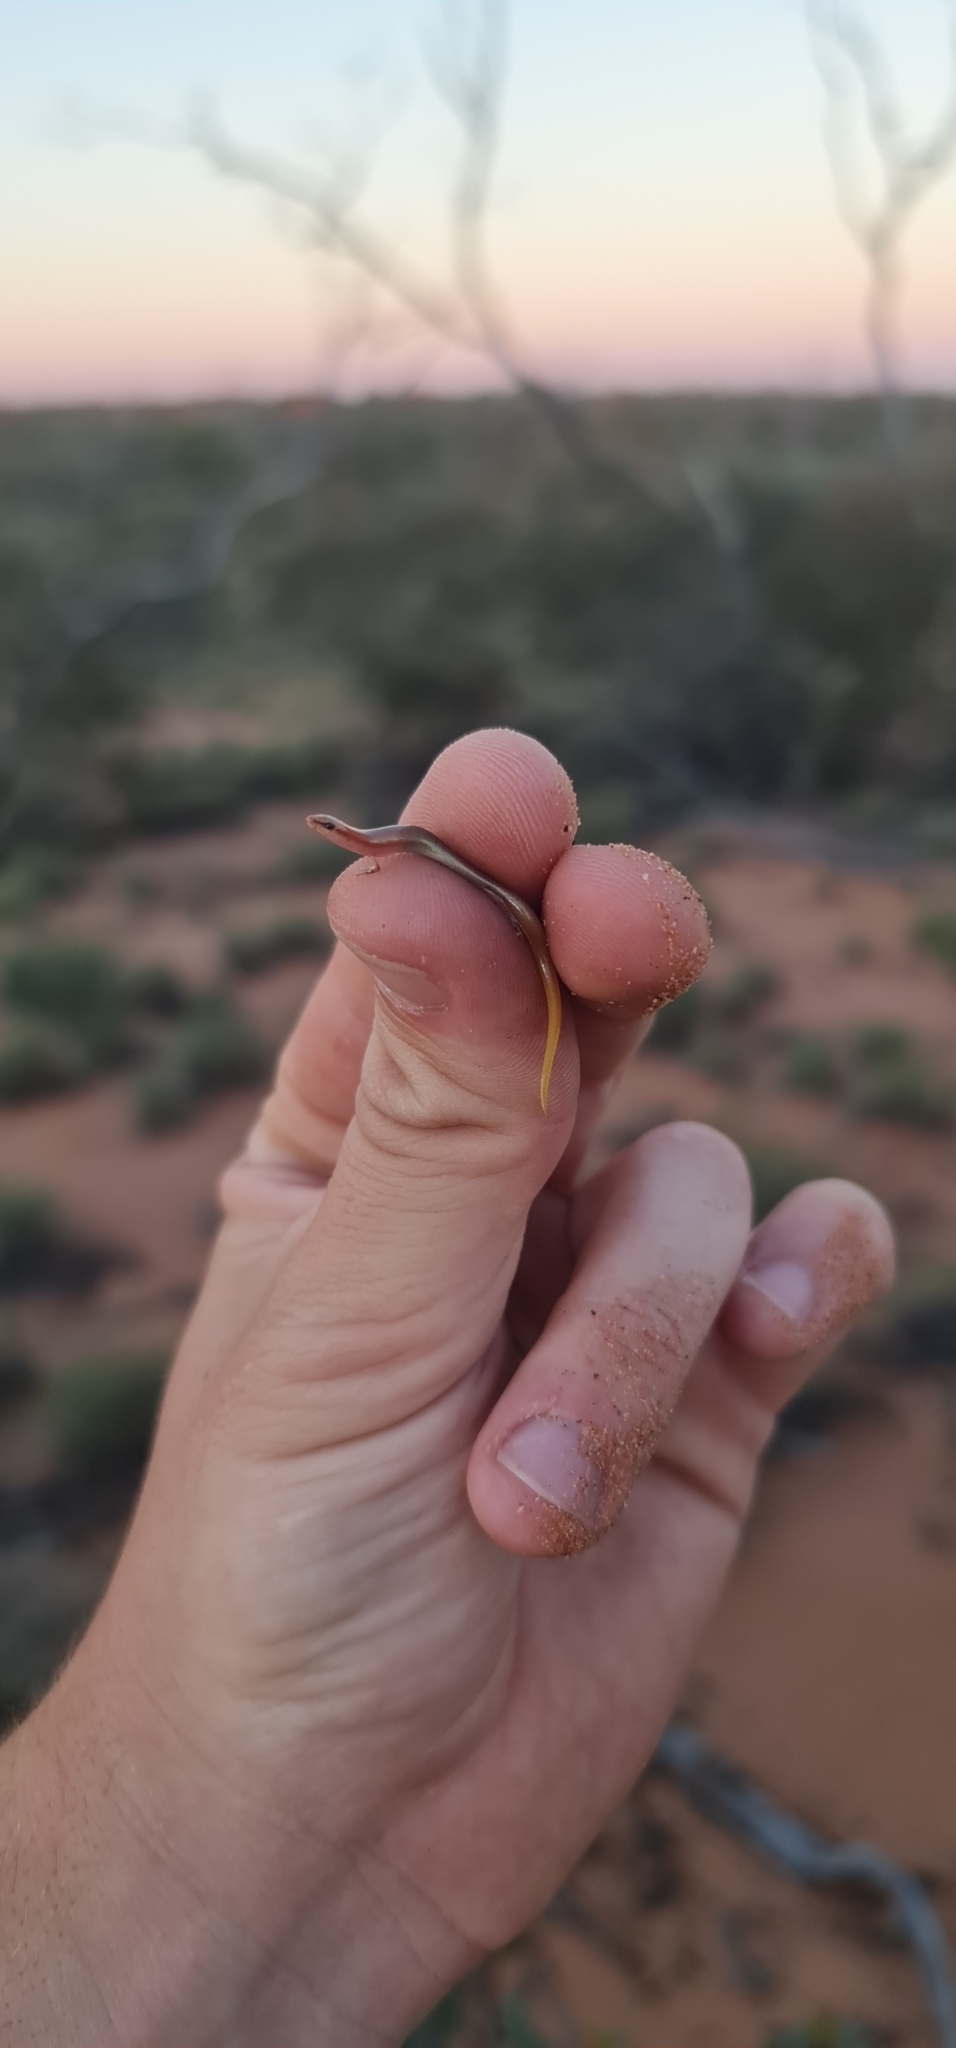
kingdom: Animalia
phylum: Chordata
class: Squamata
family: Scincidae
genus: Lerista
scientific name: Lerista aericeps
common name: Desert plain slider
